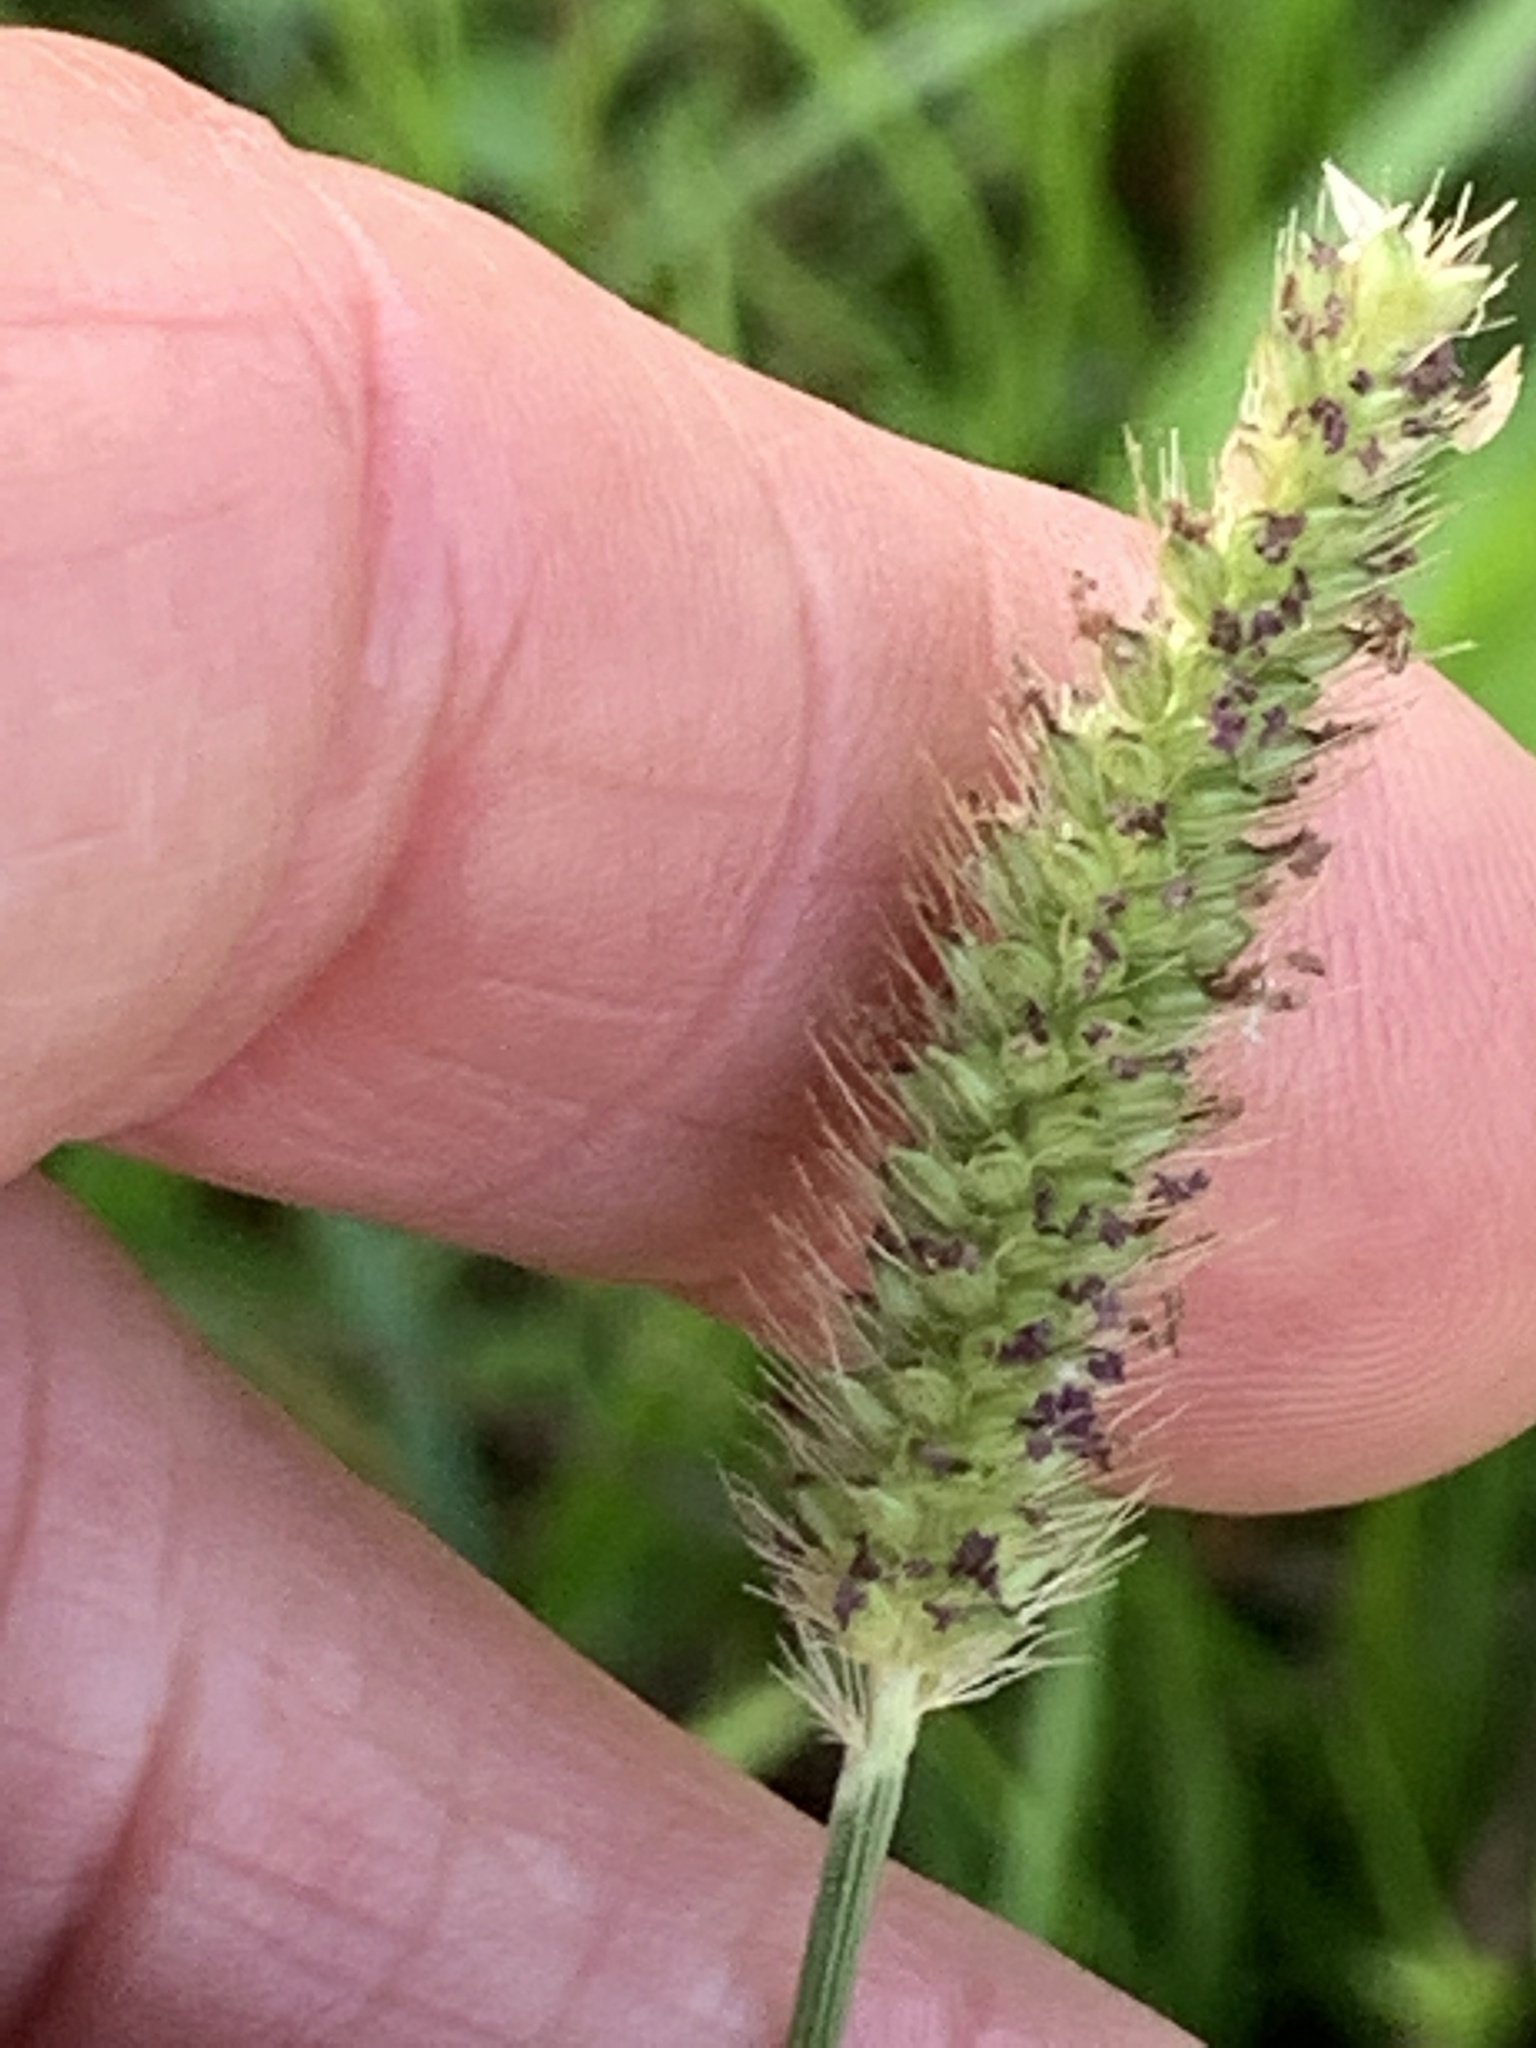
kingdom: Plantae
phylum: Tracheophyta
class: Liliopsida
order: Poales
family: Poaceae
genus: Setaria
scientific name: Setaria parviflora
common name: Knotroot bristle-grass
